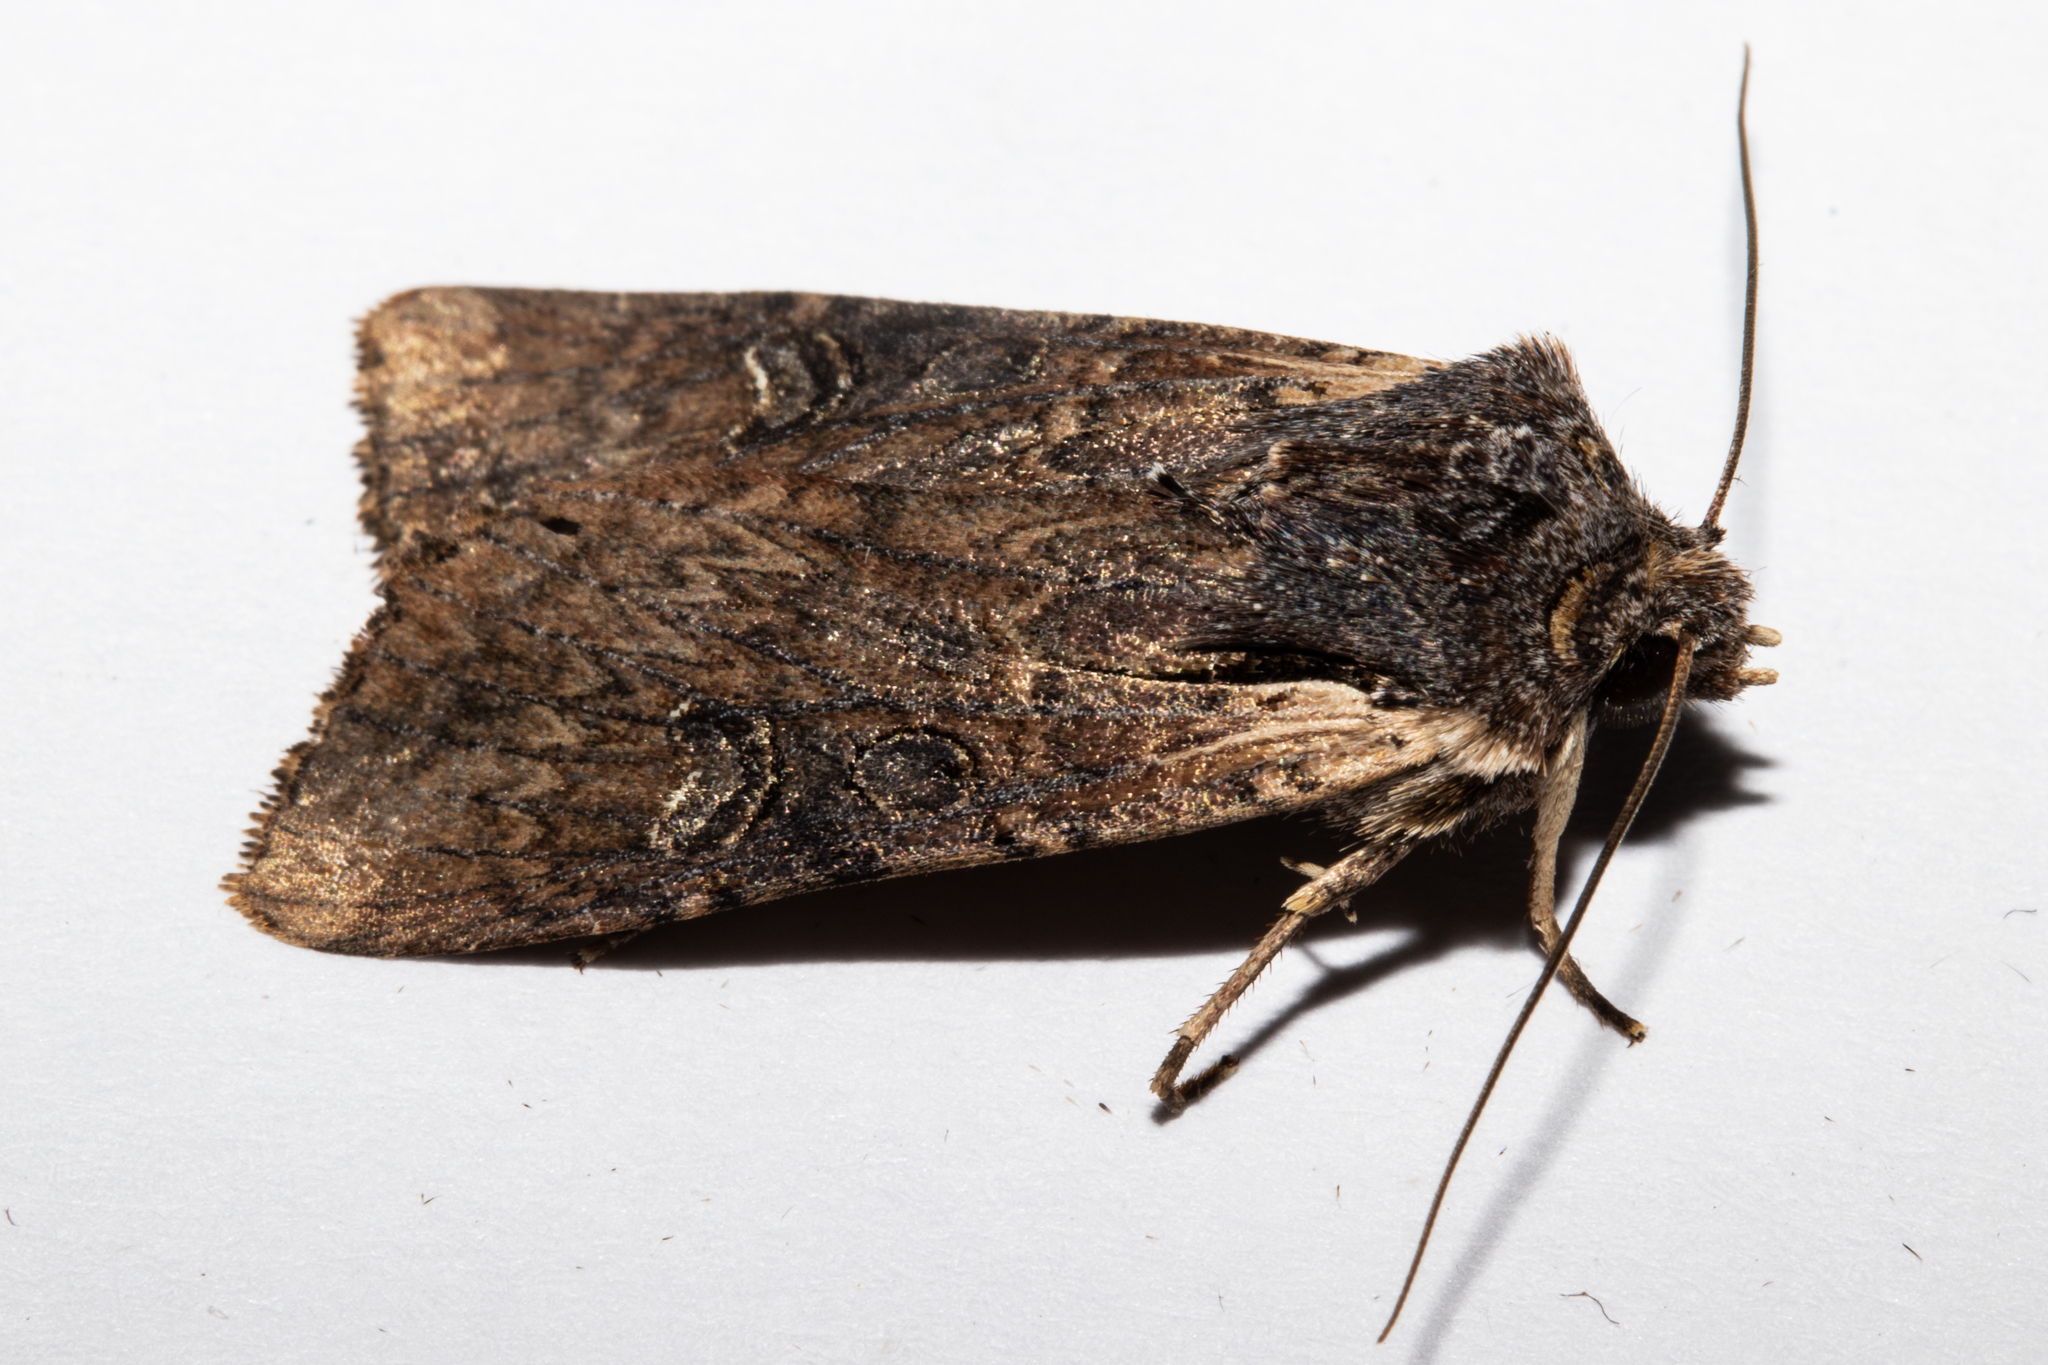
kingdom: Animalia
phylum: Arthropoda
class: Insecta
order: Lepidoptera
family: Noctuidae
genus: Ichneutica
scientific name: Ichneutica omoplaca
